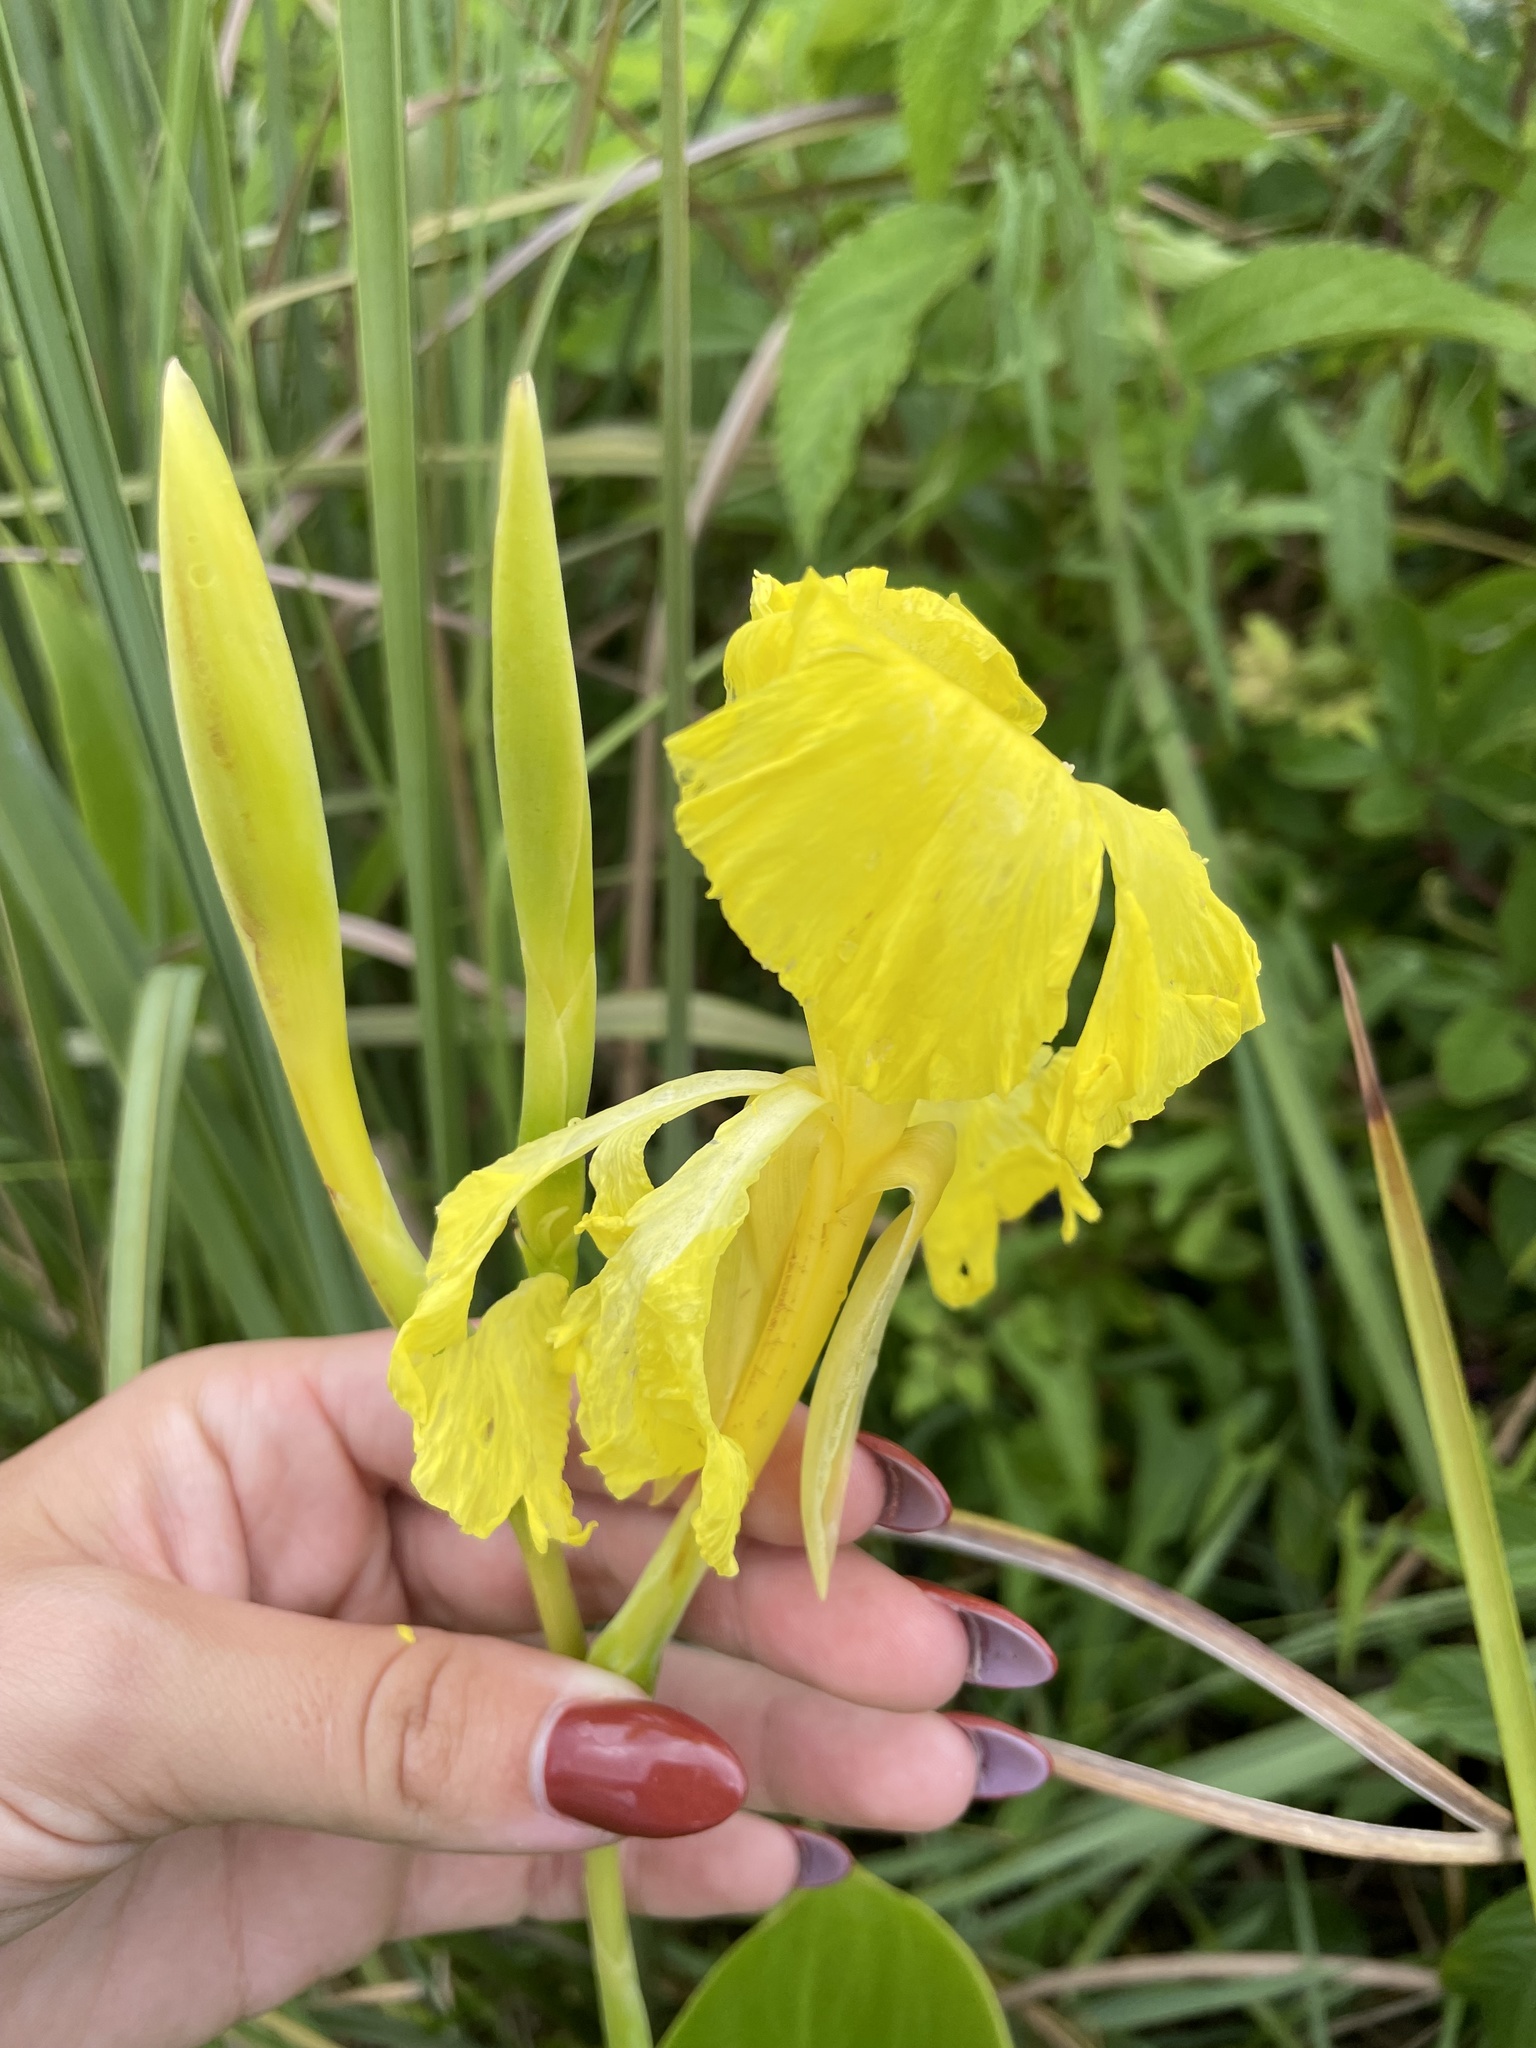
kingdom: Plantae
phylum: Tracheophyta
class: Liliopsida
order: Zingiberales
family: Cannaceae
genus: Canna
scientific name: Canna flaccida
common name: Bandana-of-the-everglades
